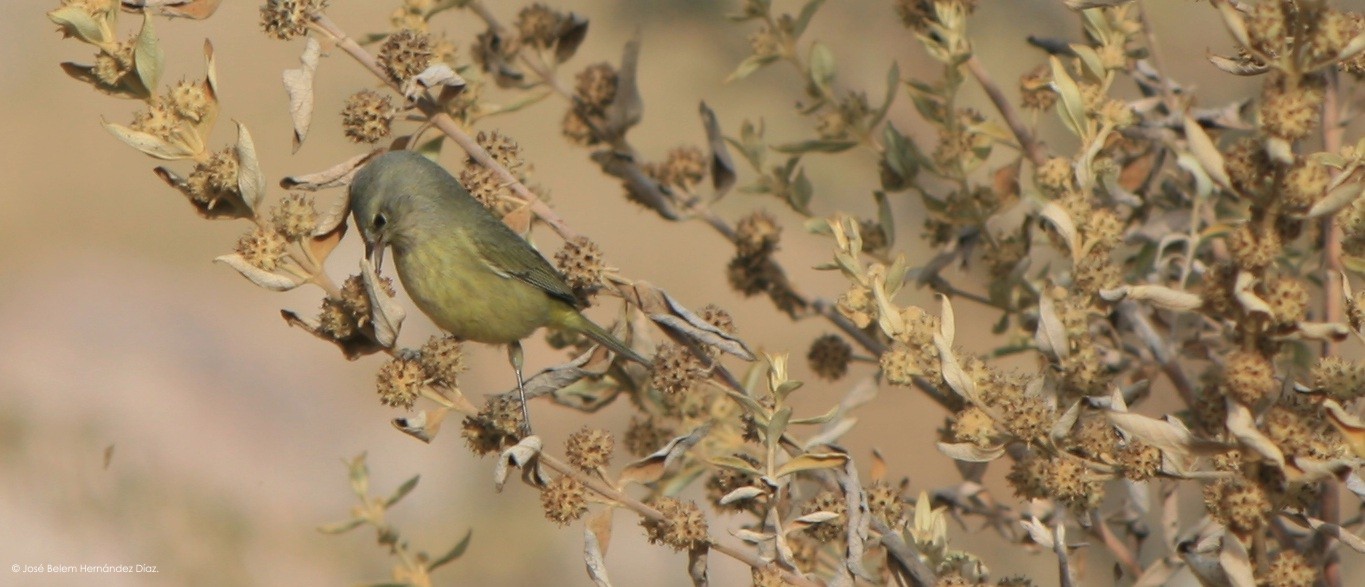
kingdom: Animalia
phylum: Chordata
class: Aves
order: Passeriformes
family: Parulidae
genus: Leiothlypis
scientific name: Leiothlypis celata
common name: Orange-crowned warbler
